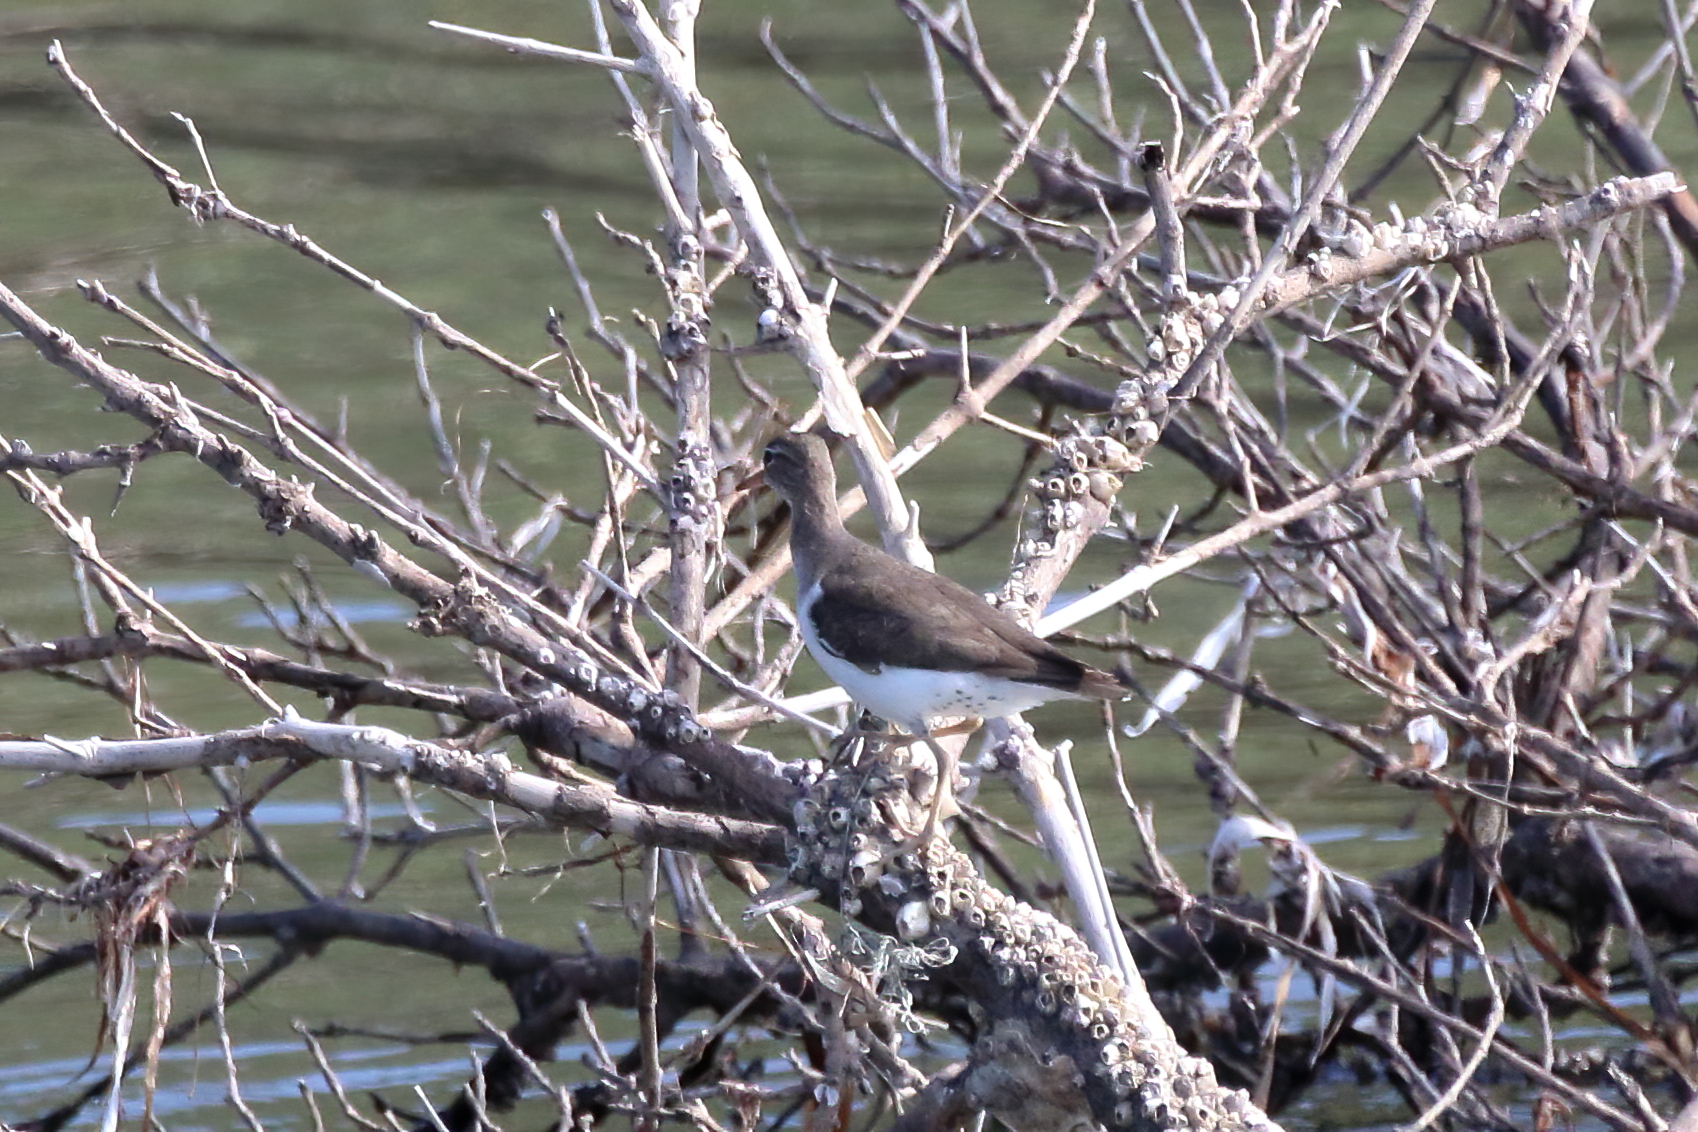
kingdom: Animalia
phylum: Chordata
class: Aves
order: Charadriiformes
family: Scolopacidae
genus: Actitis
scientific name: Actitis macularius
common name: Spotted sandpiper
